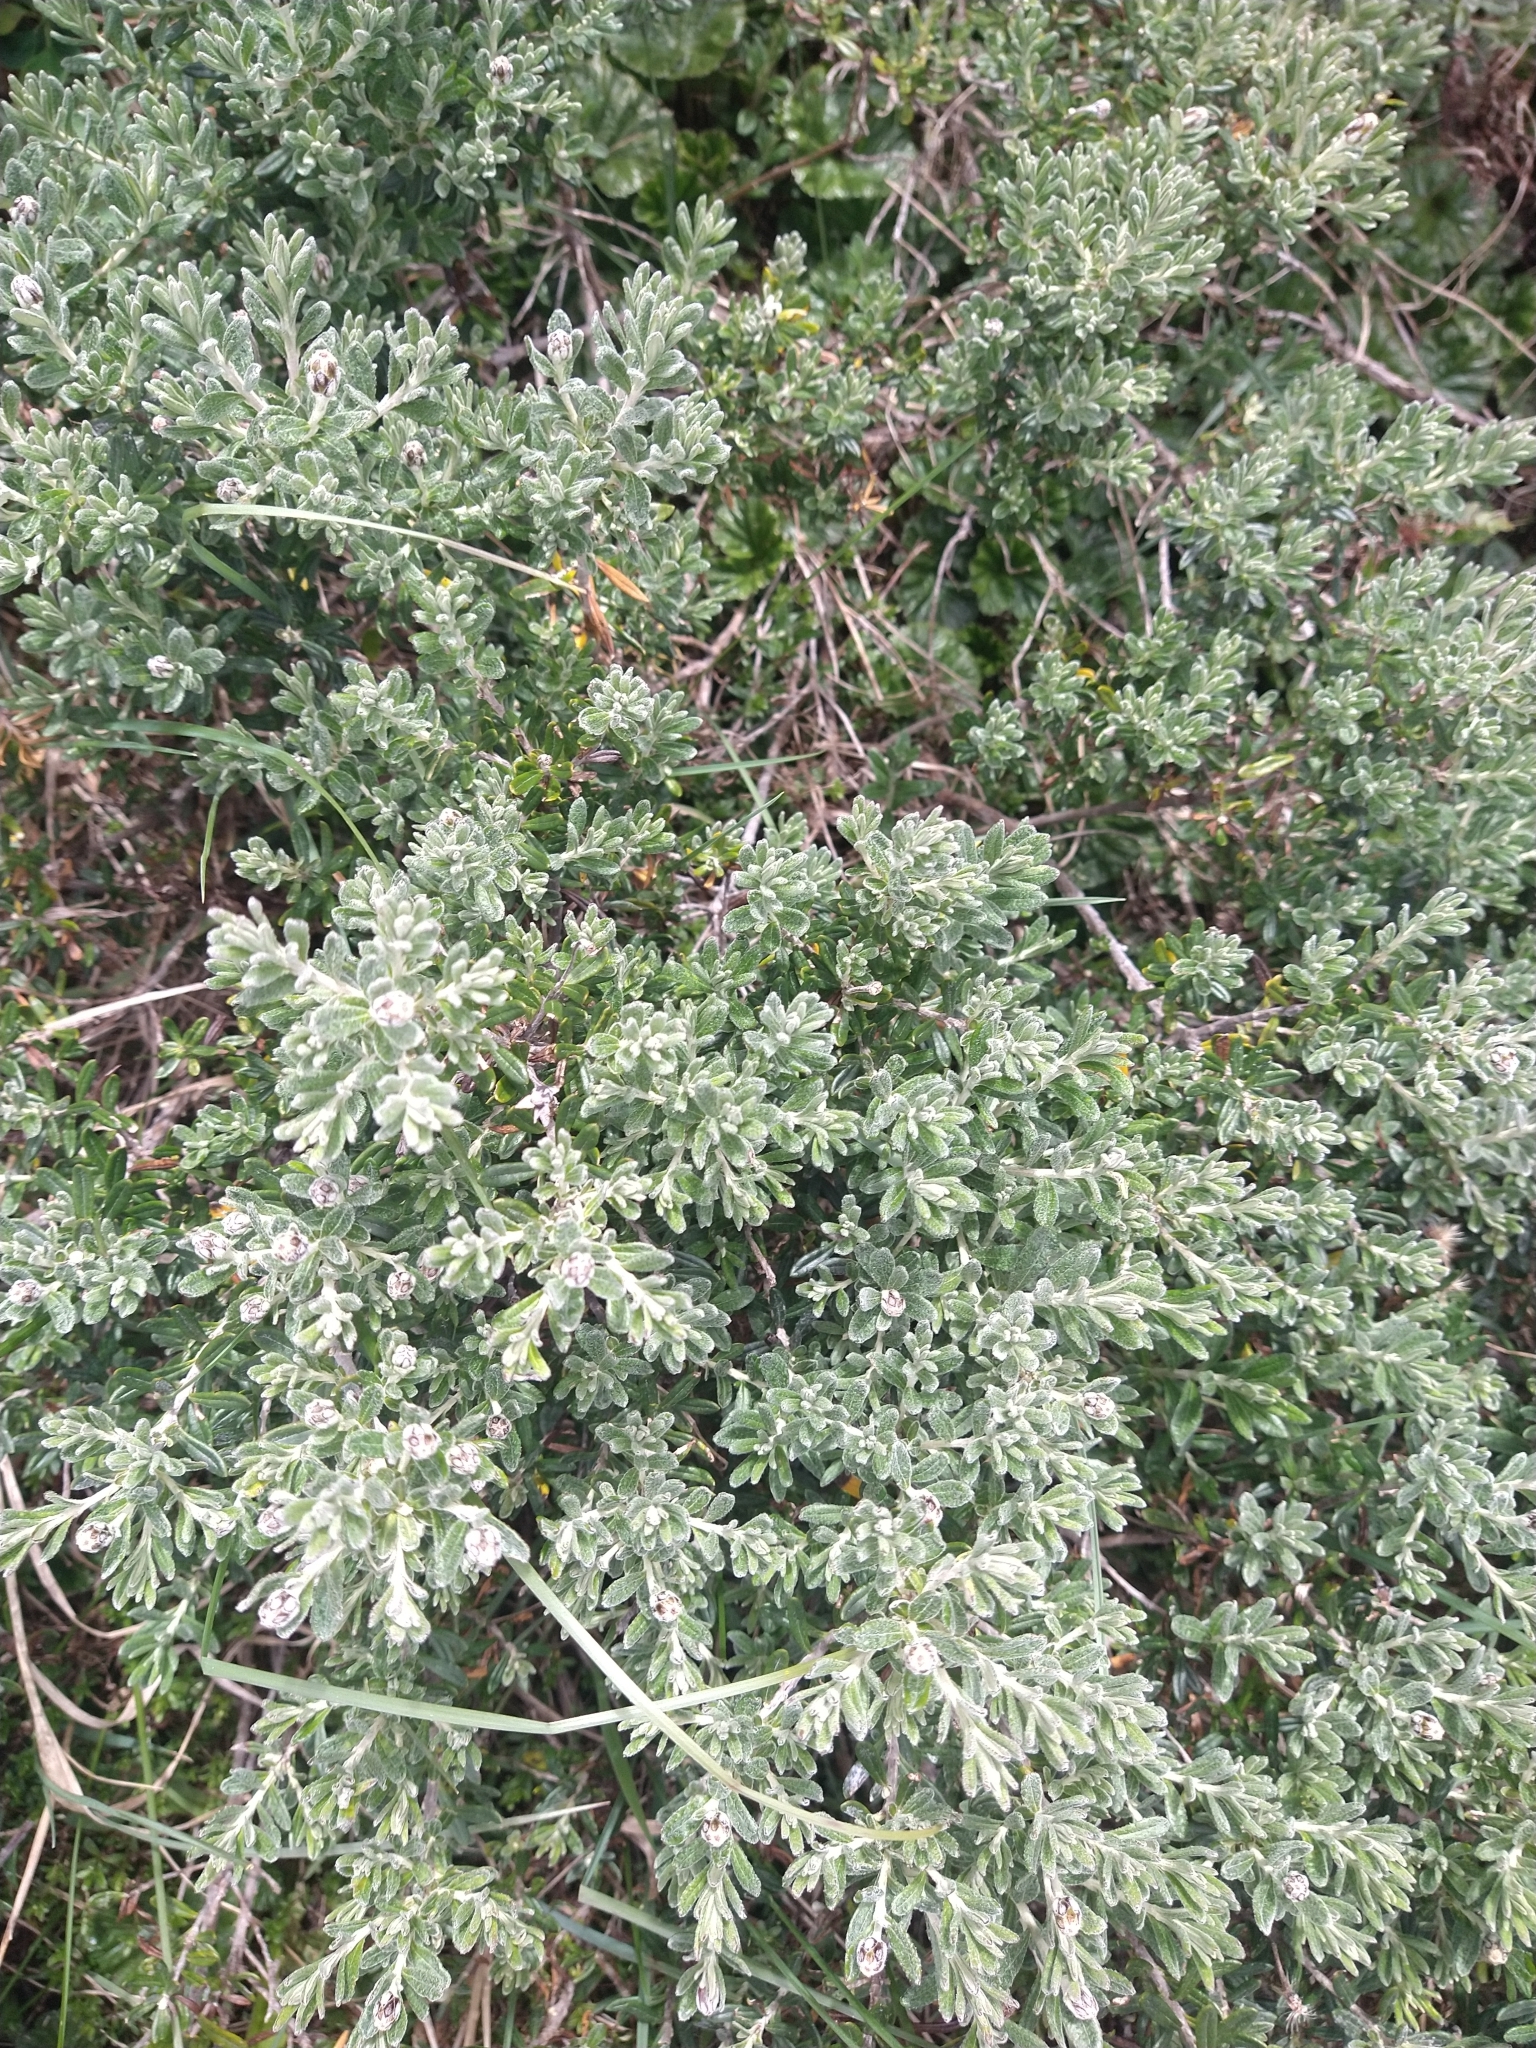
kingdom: Plantae
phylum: Tracheophyta
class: Magnoliopsida
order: Asterales
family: Asteraceae
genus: Chiliotrichum
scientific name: Chiliotrichum diffusum
